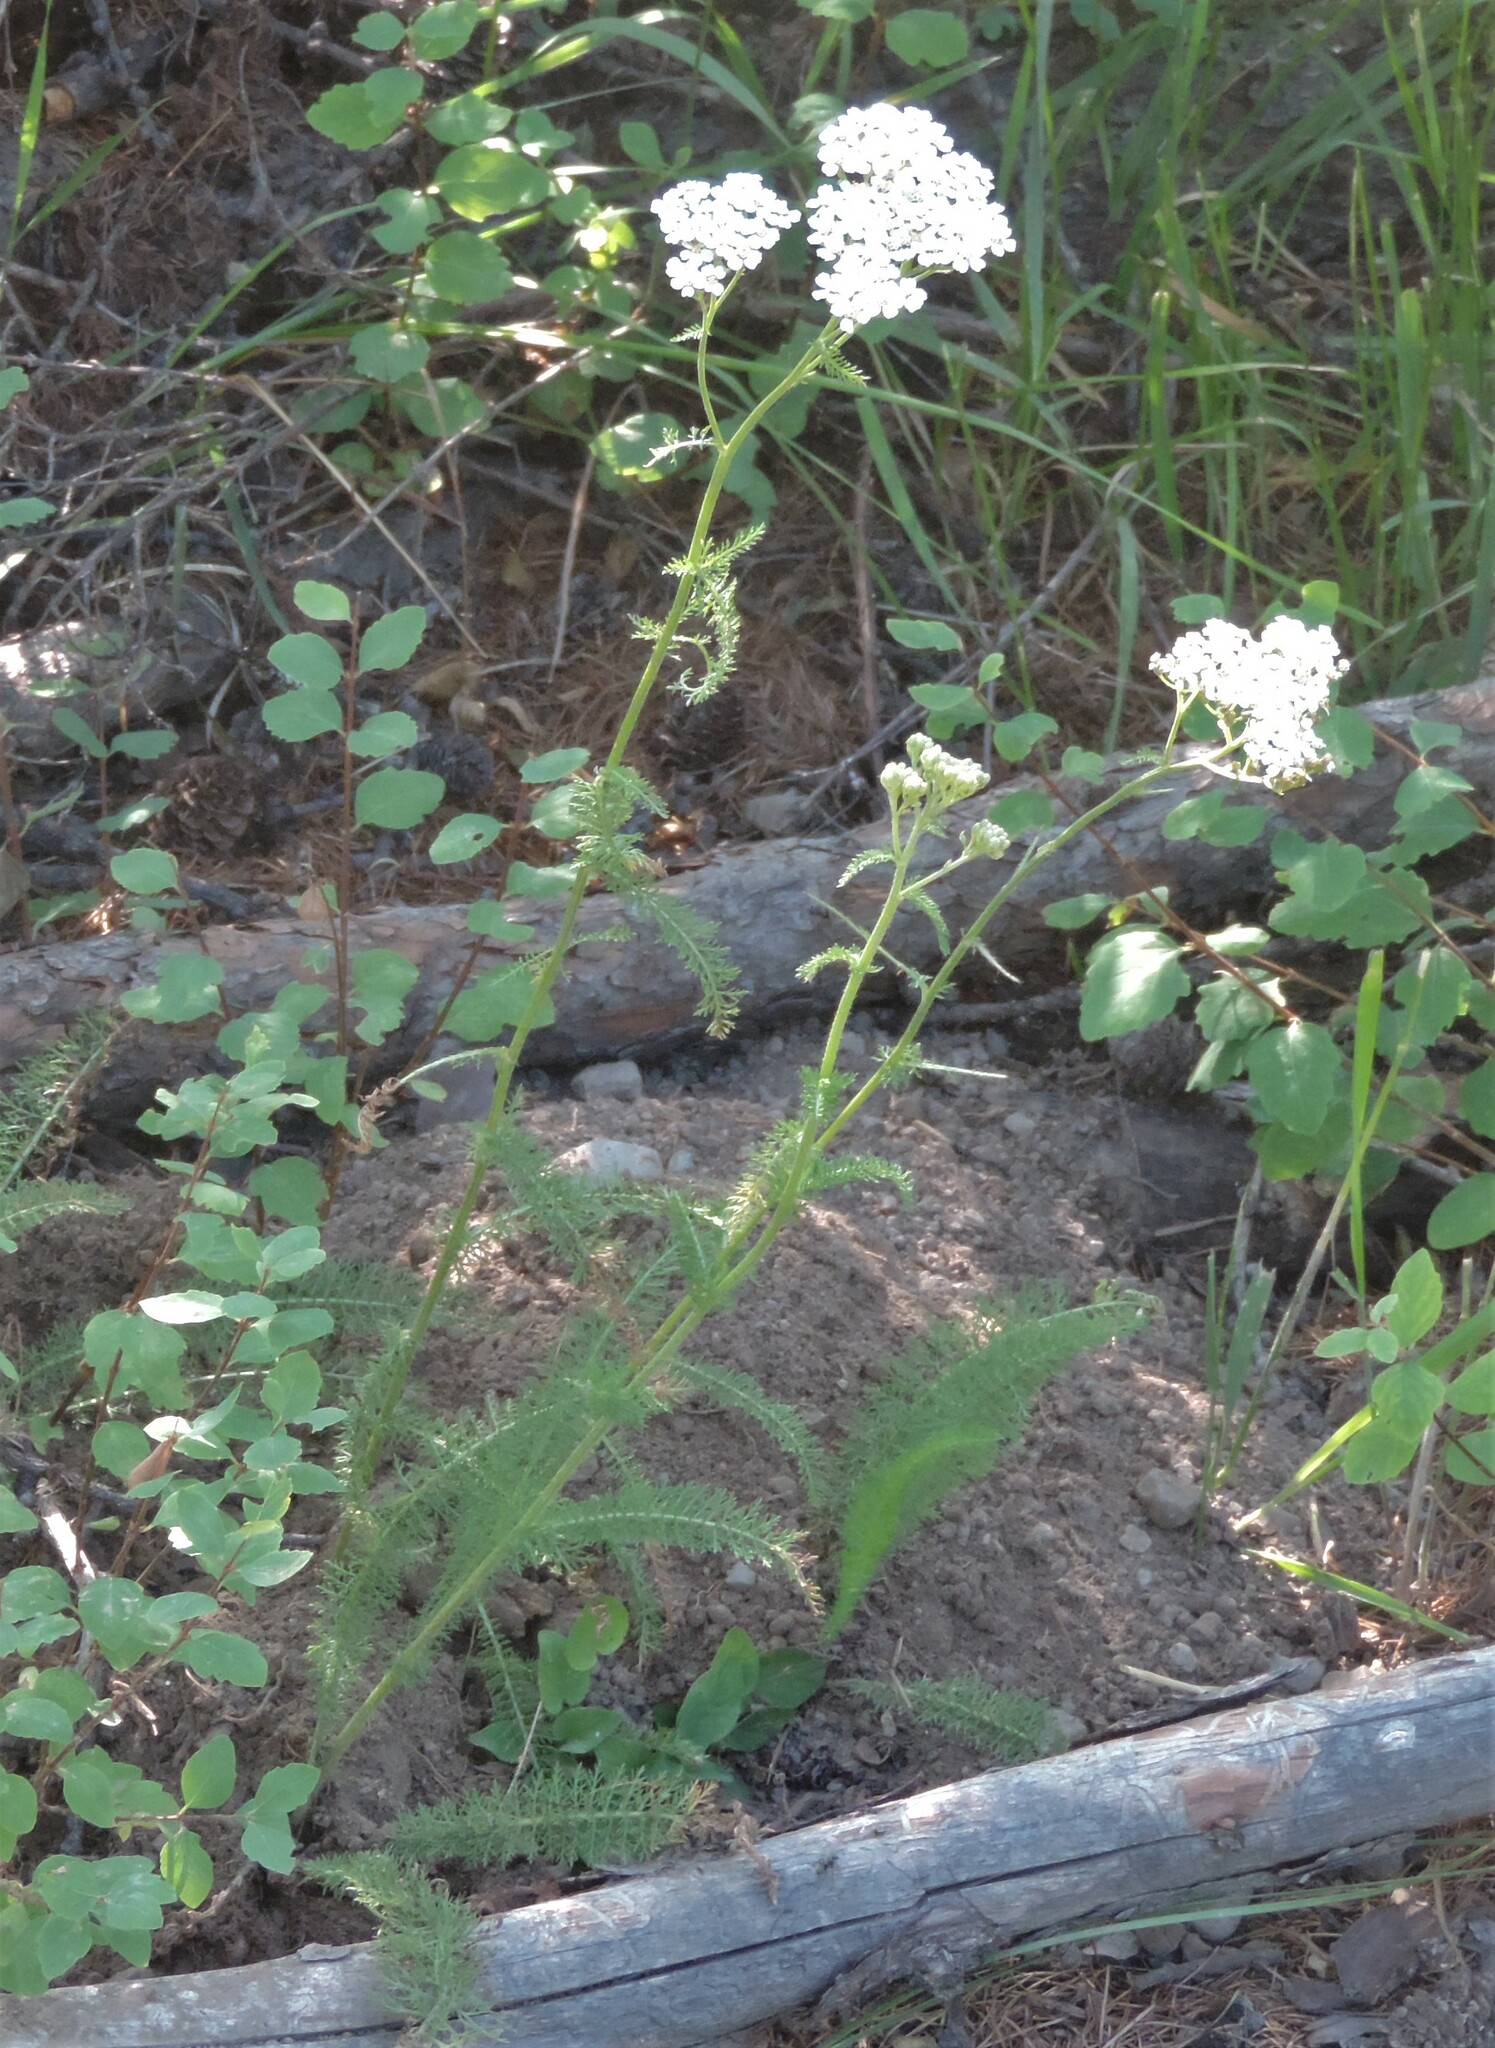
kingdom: Plantae
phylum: Tracheophyta
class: Magnoliopsida
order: Asterales
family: Asteraceae
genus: Achillea
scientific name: Achillea millefolium
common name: Yarrow
